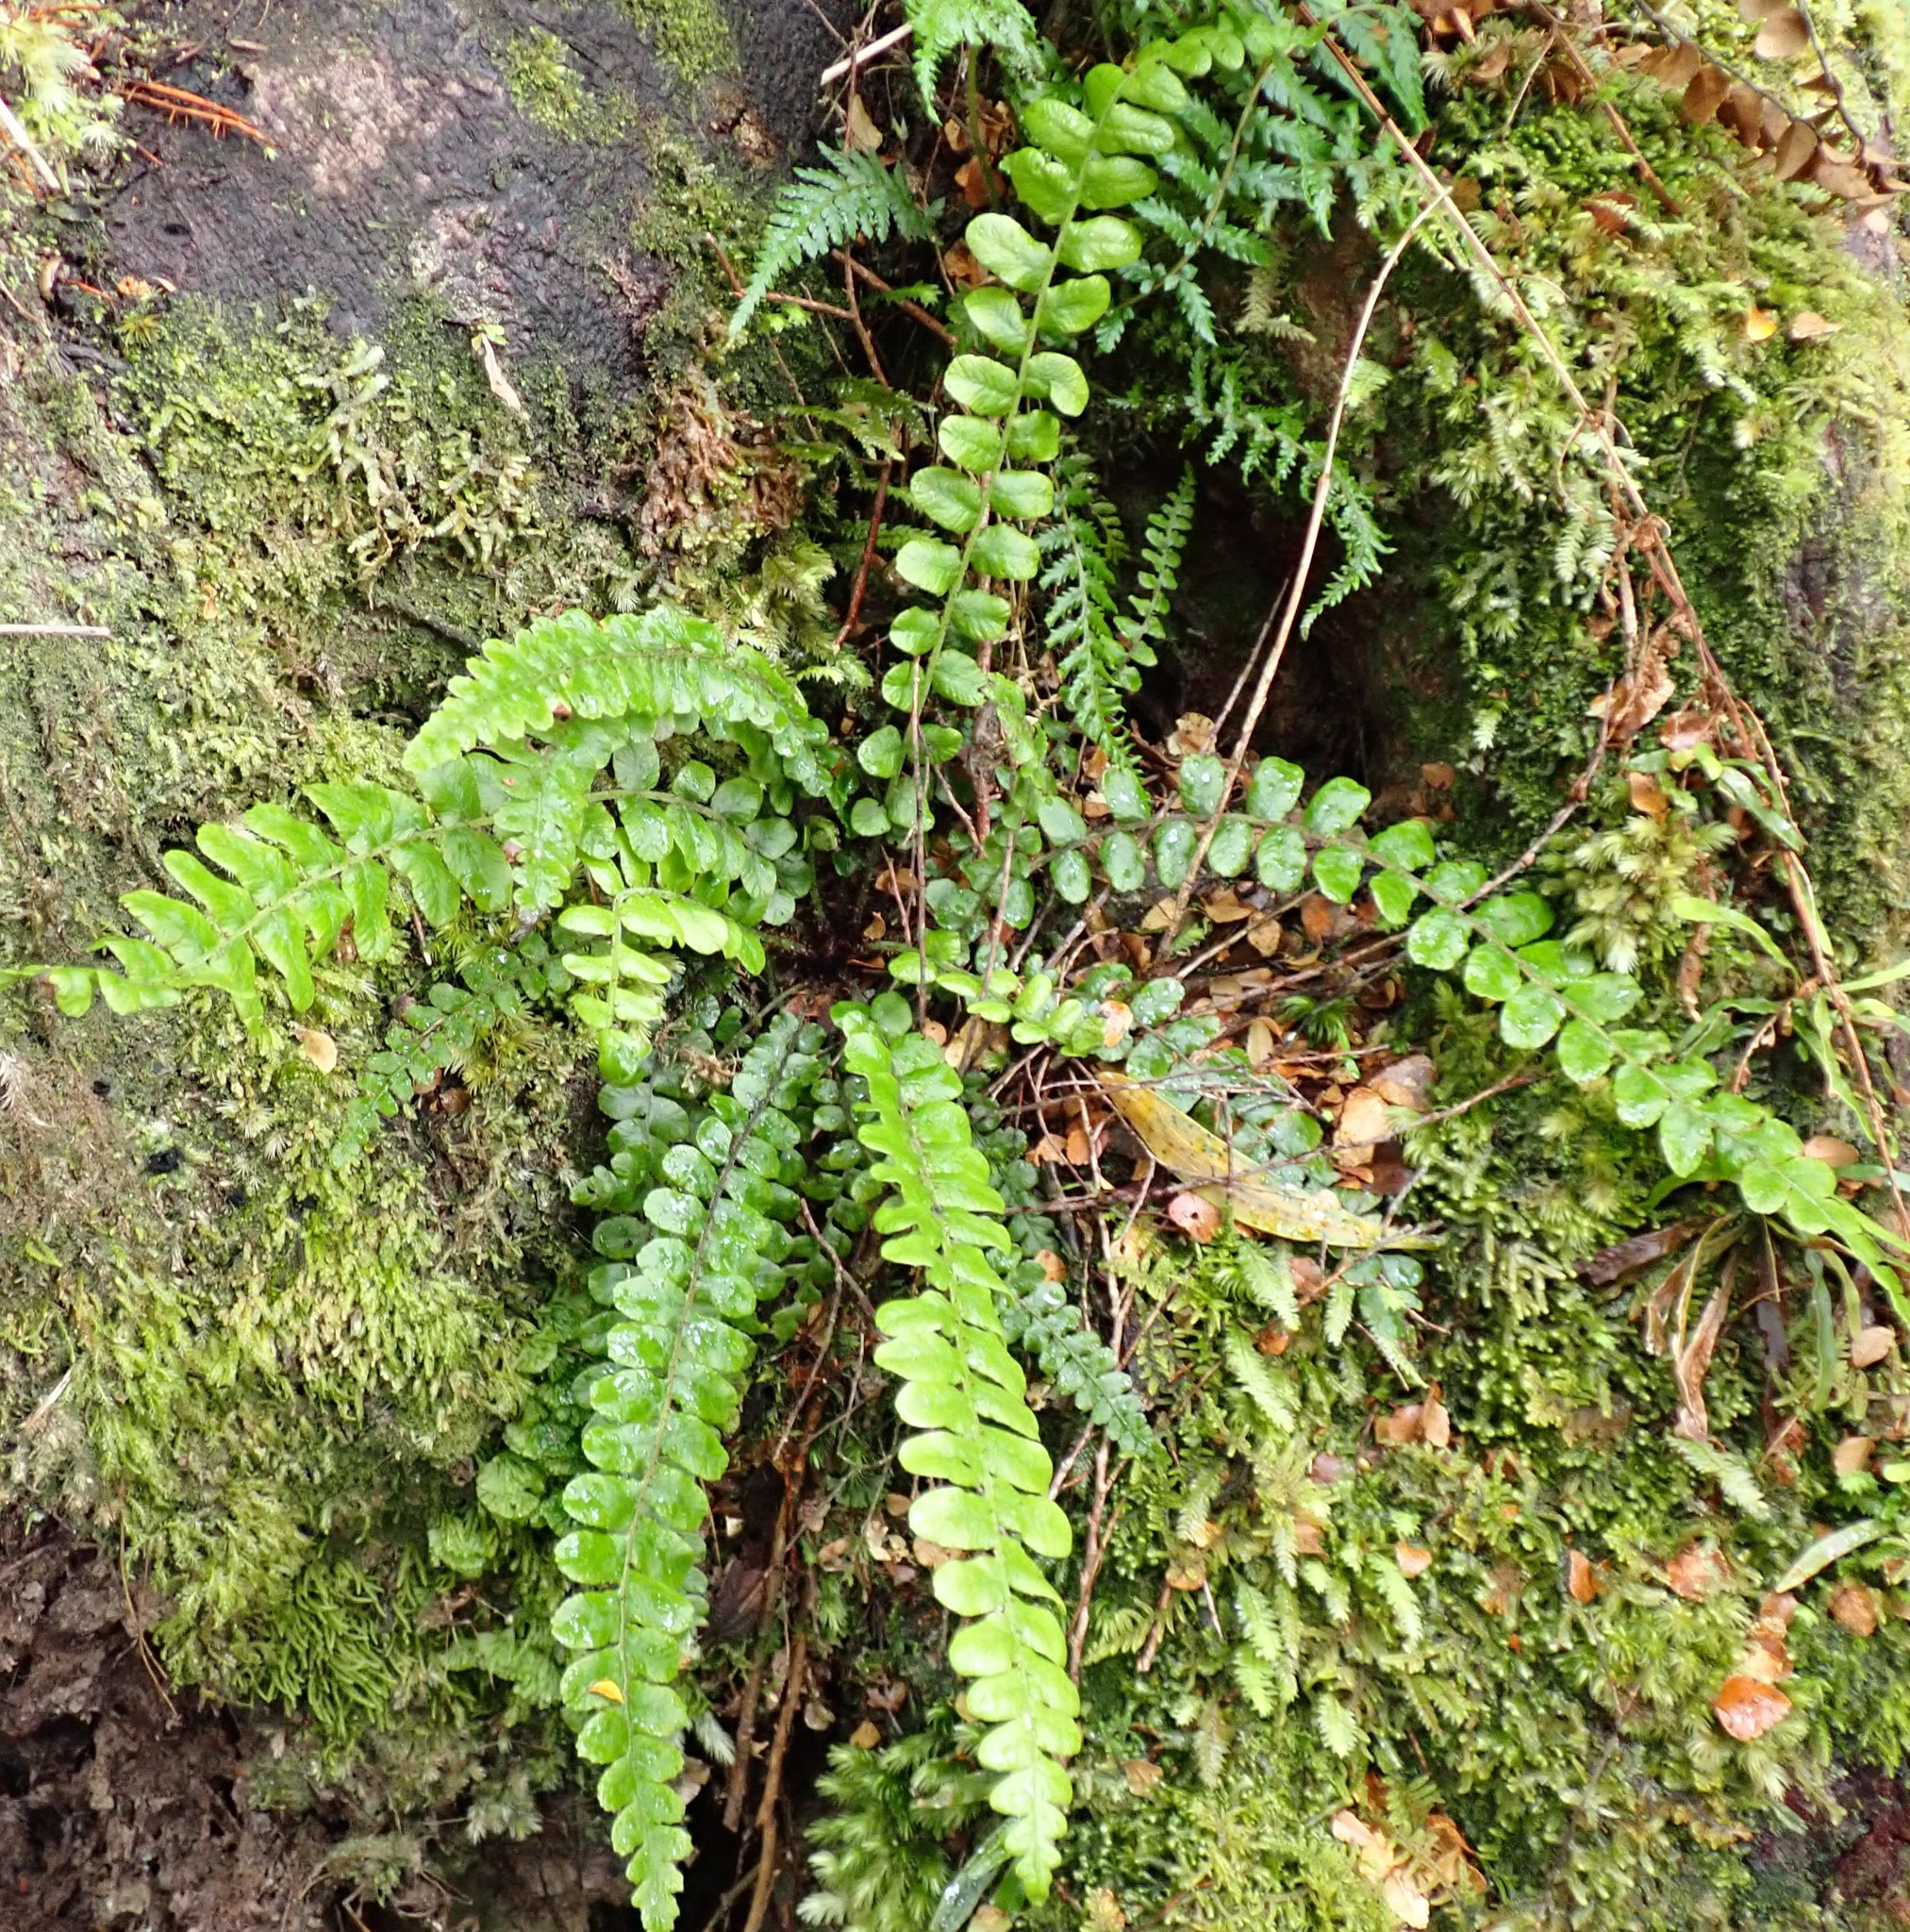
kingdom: Plantae
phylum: Tracheophyta
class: Polypodiopsida
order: Polypodiales
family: Blechnaceae
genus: Cranfillia
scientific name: Cranfillia fluviatilis
